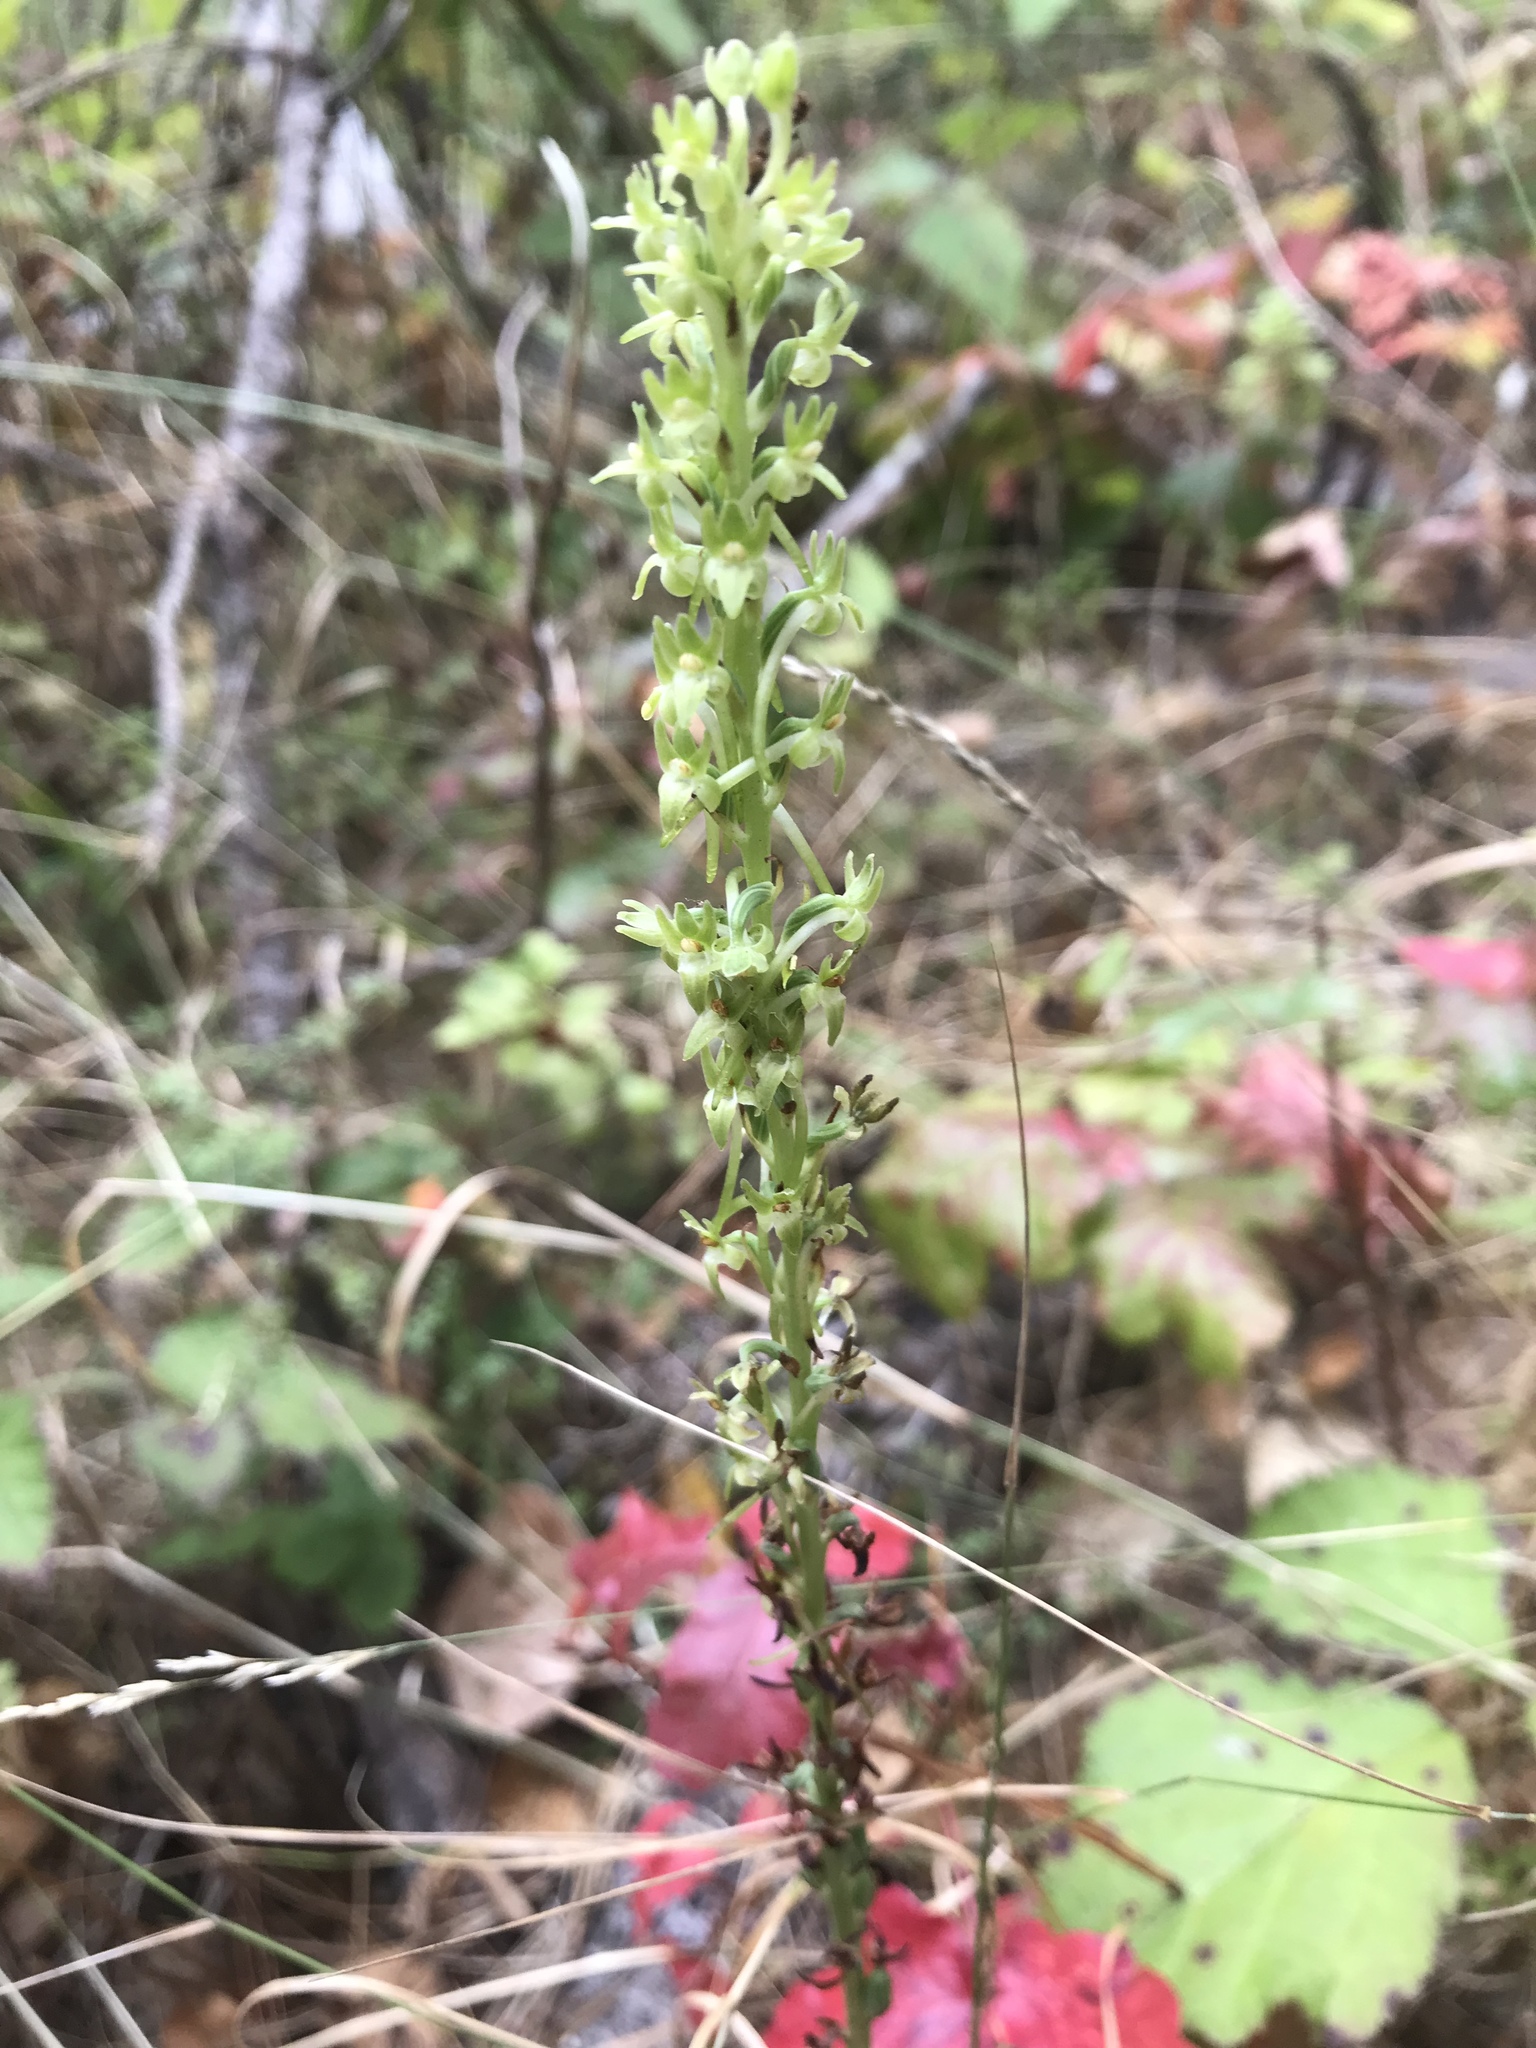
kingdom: Plantae
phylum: Tracheophyta
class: Liliopsida
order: Asparagales
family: Orchidaceae
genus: Platanthera
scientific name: Platanthera elongata
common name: Dense-flowered rein orchid
